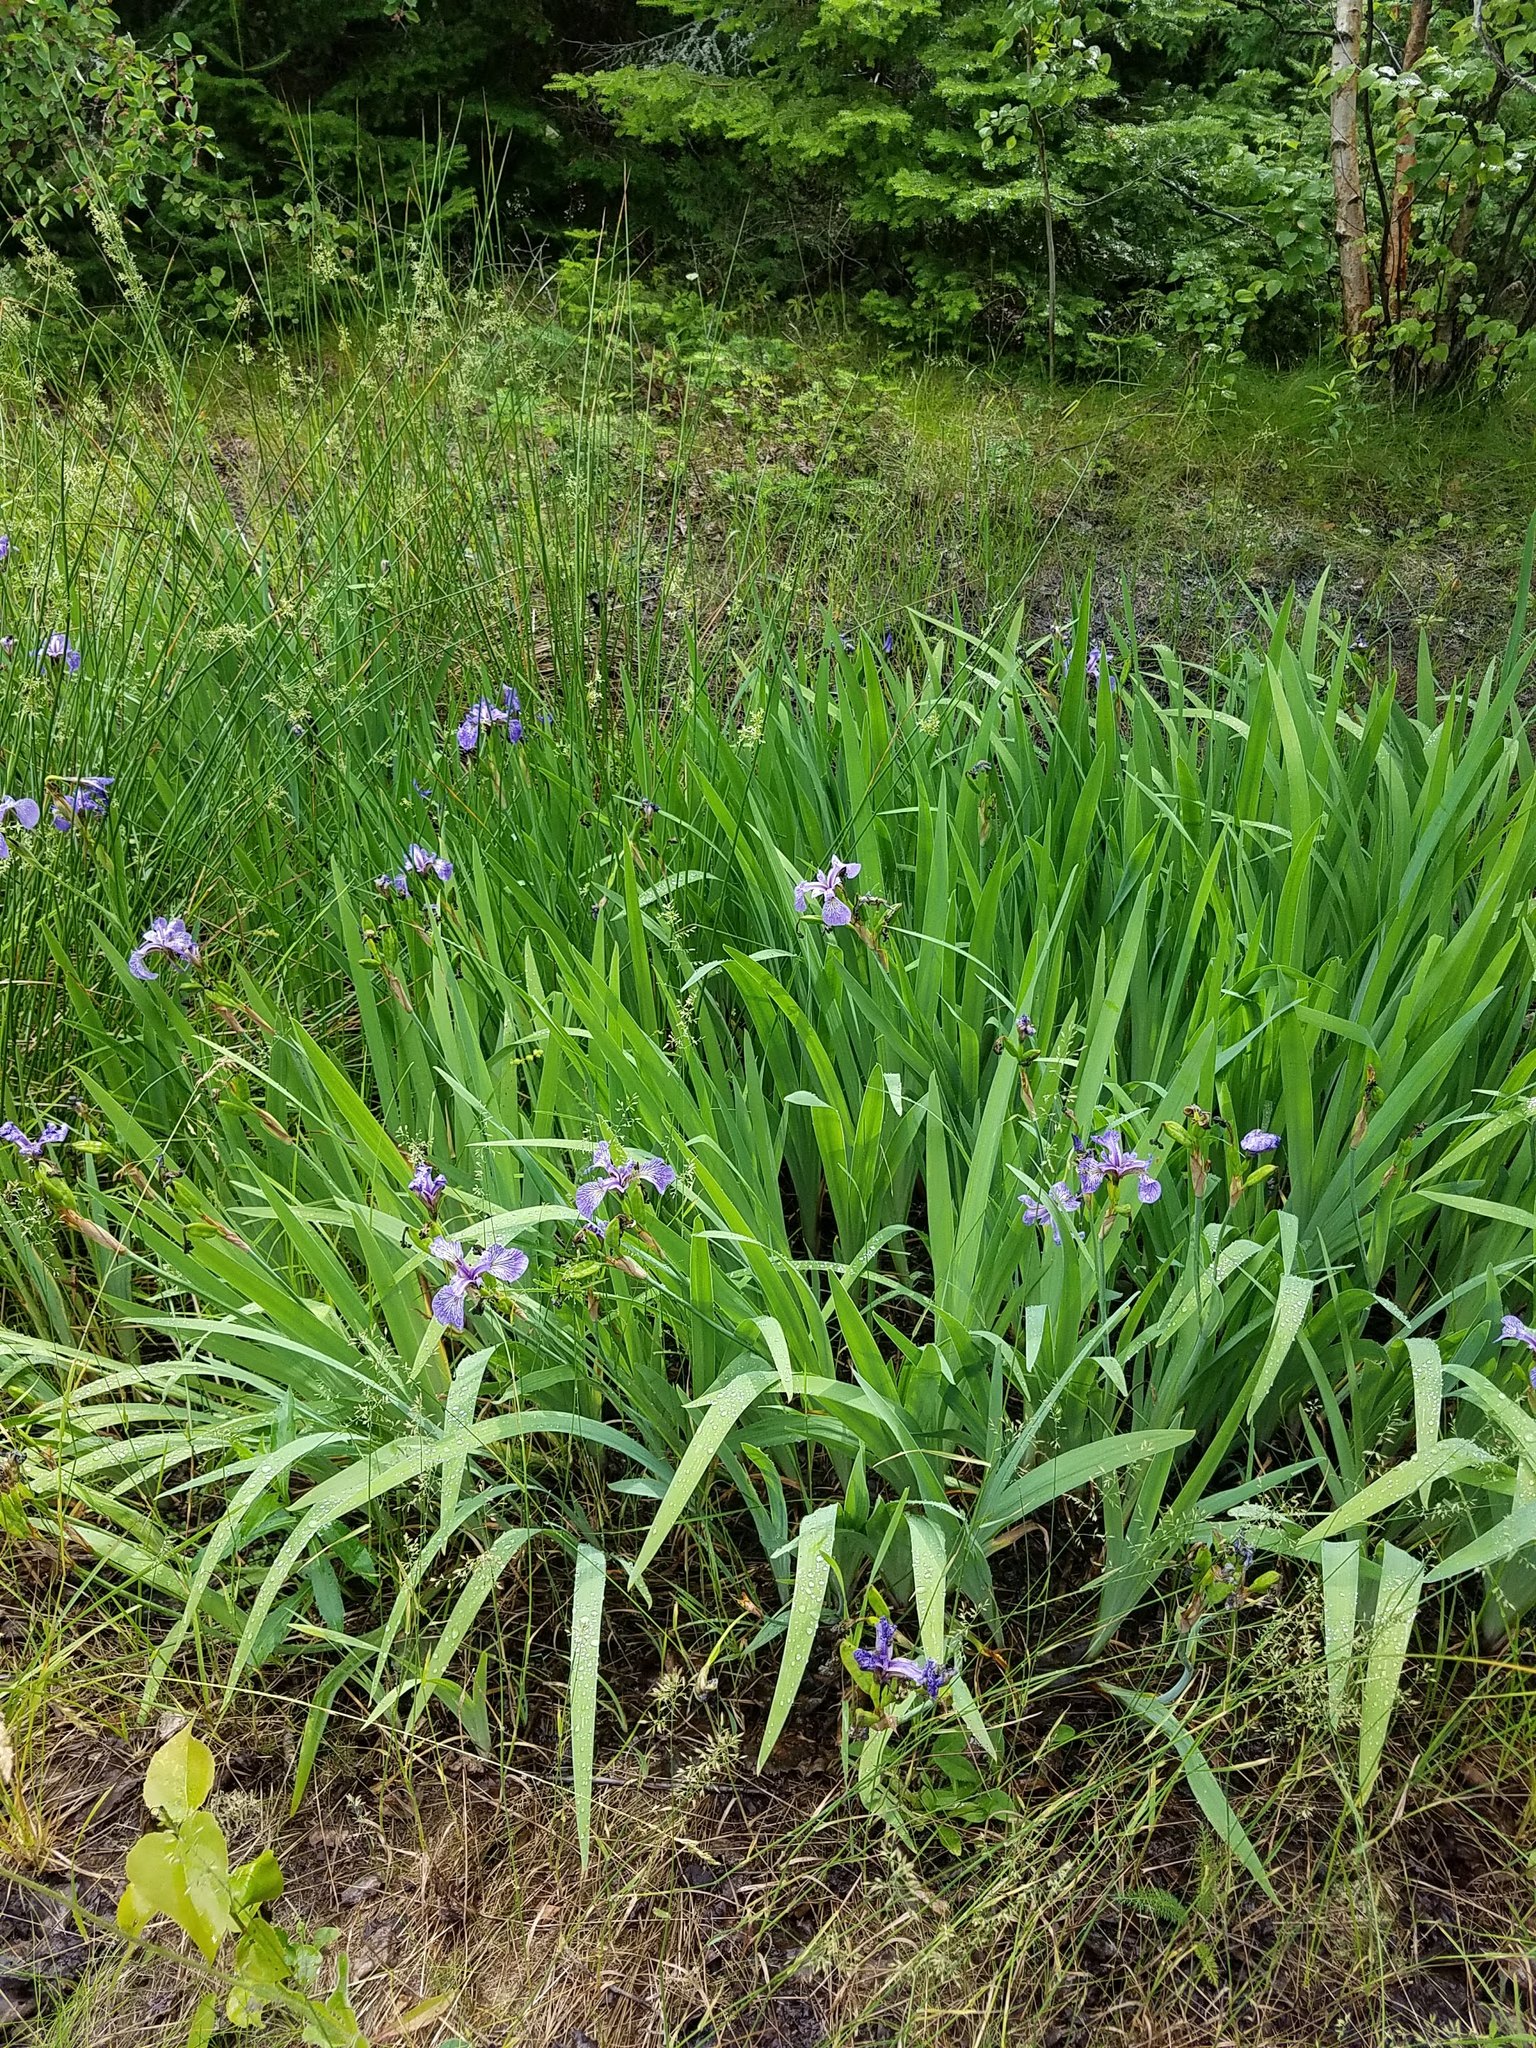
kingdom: Plantae
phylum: Tracheophyta
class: Liliopsida
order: Asparagales
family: Iridaceae
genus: Iris
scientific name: Iris versicolor
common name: Purple iris
